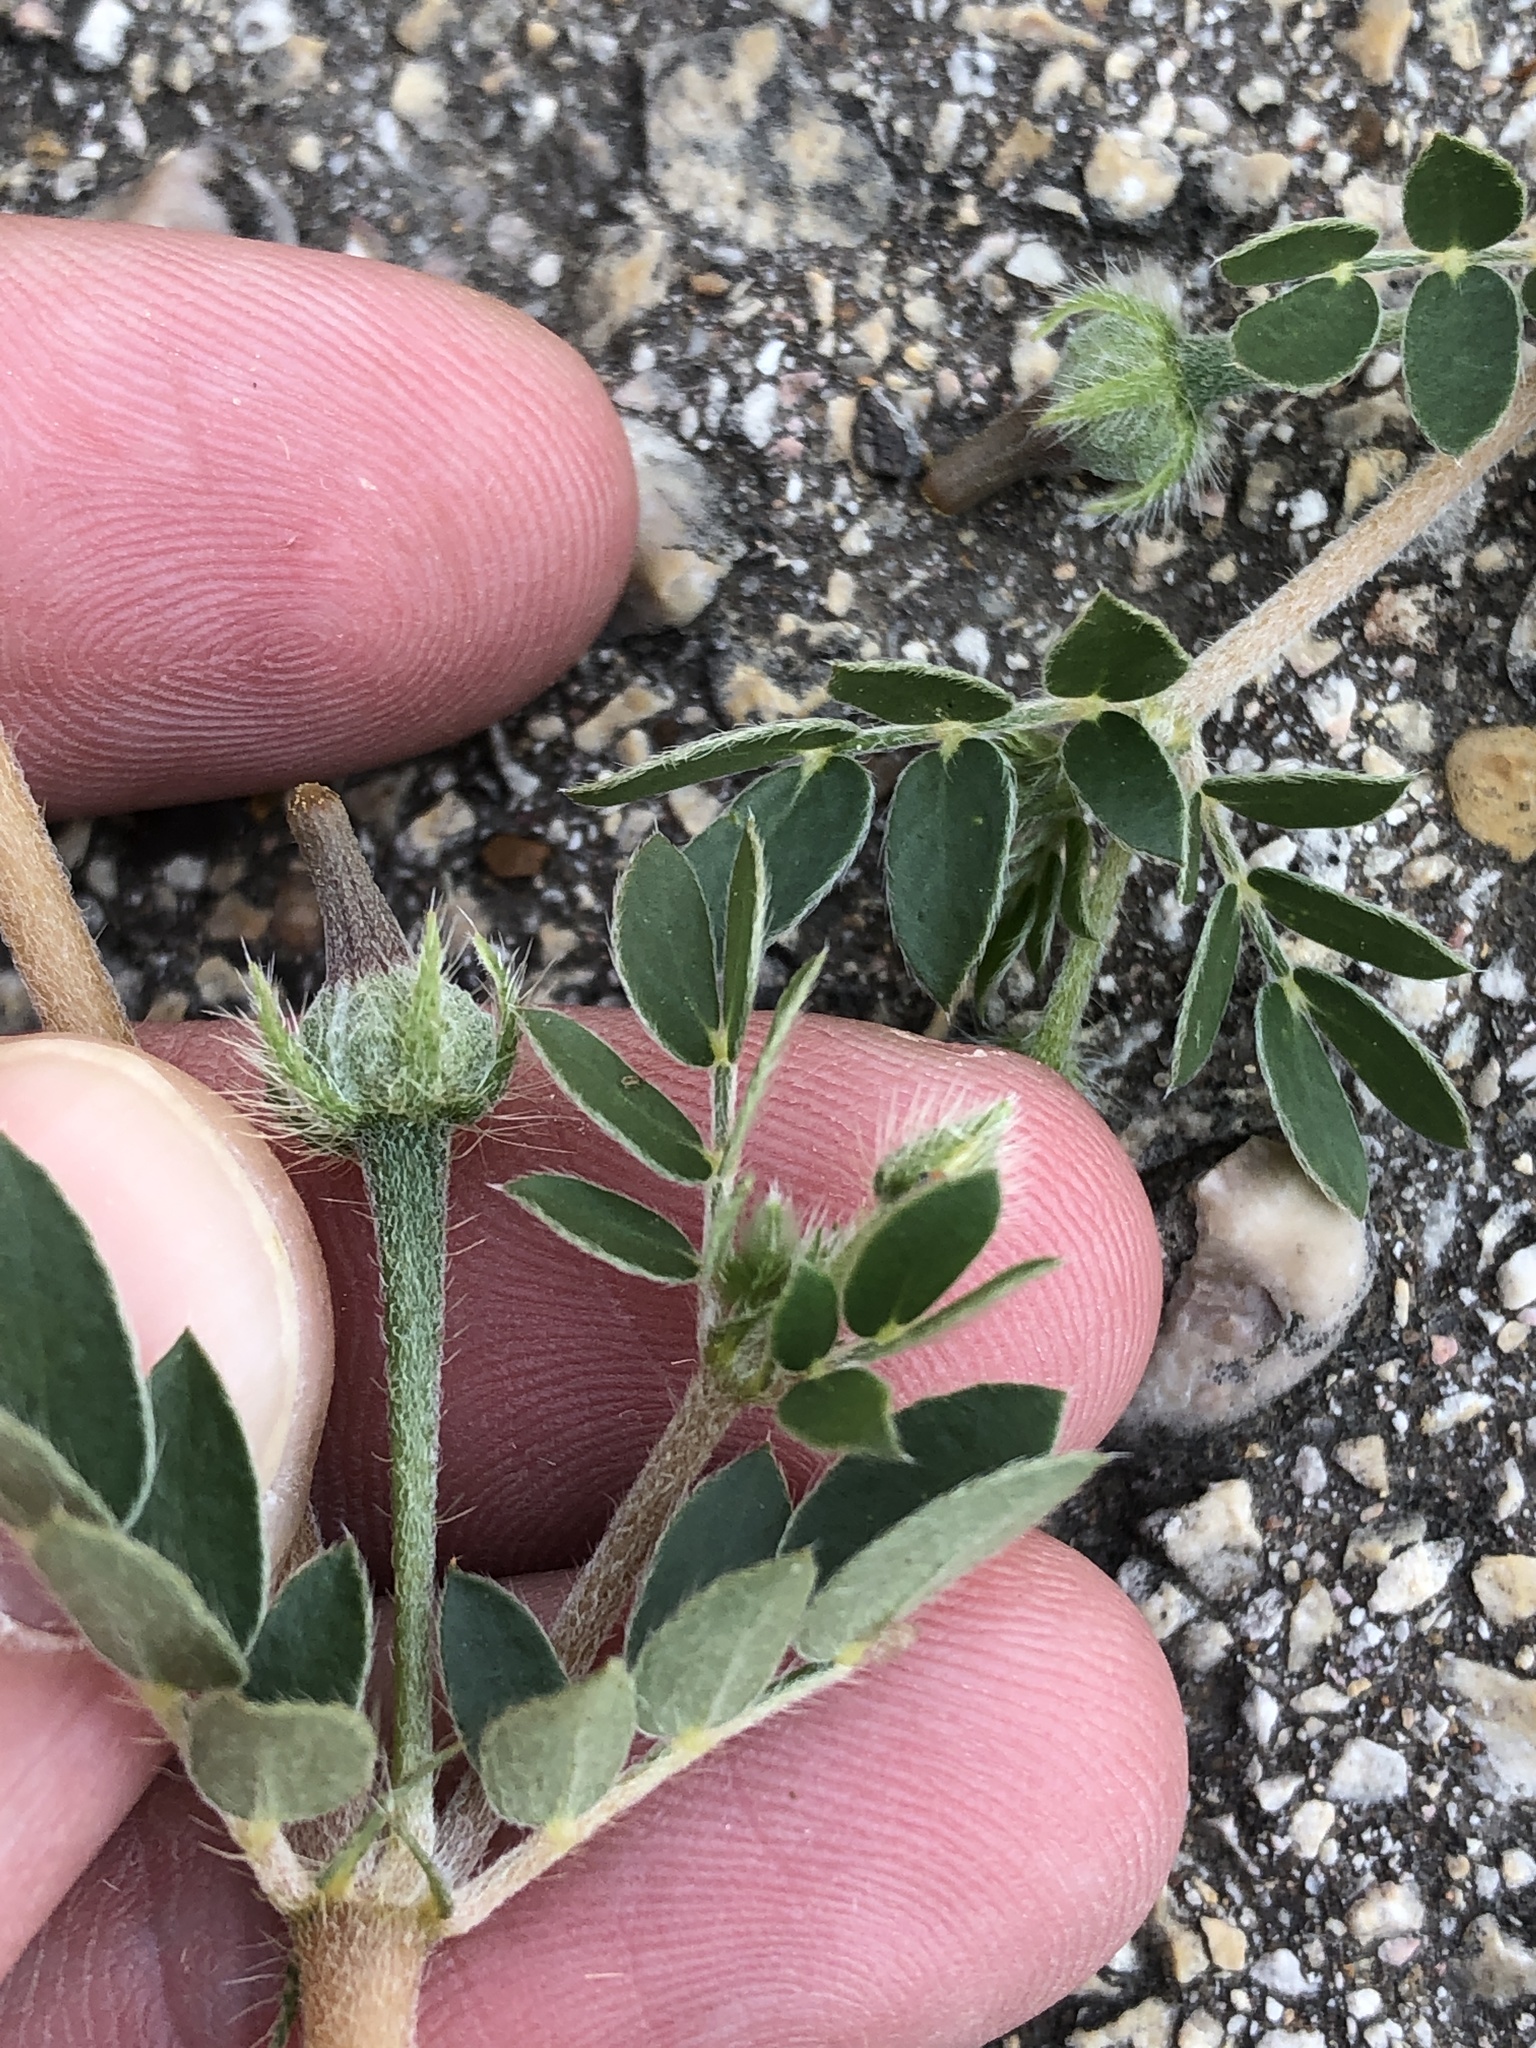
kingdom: Plantae
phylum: Tracheophyta
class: Magnoliopsida
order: Zygophyllales
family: Zygophyllaceae
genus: Kallstroemia
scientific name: Kallstroemia parviflora
